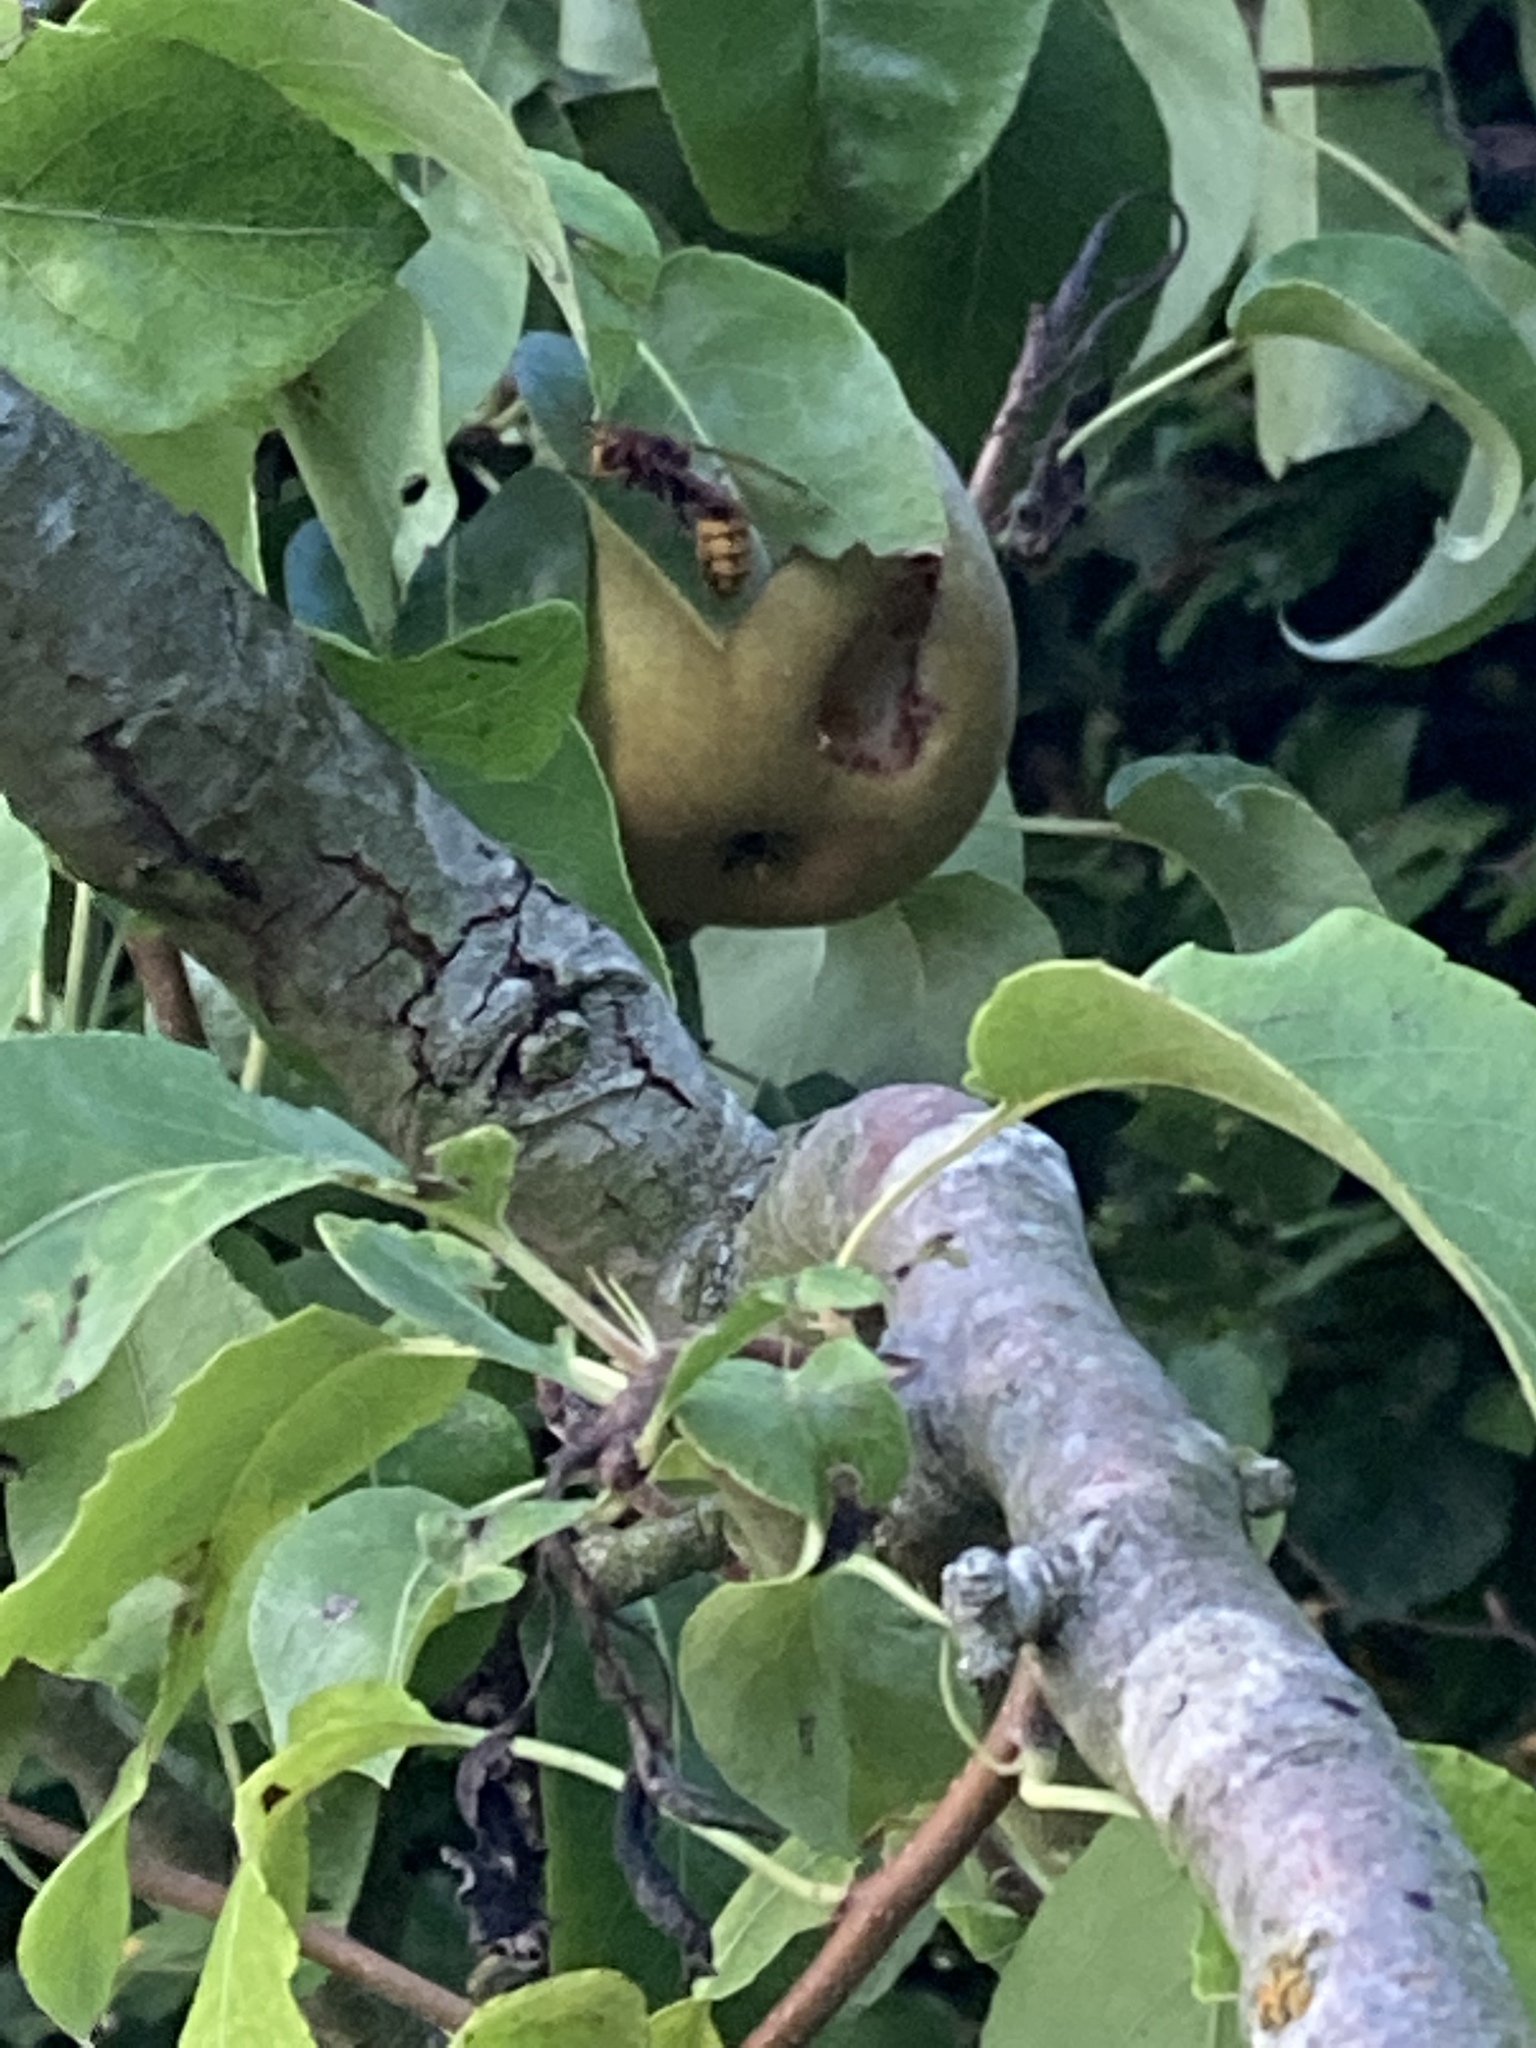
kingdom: Animalia
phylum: Arthropoda
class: Insecta
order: Hymenoptera
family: Vespidae
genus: Vespa
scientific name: Vespa crabro
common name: Hornet
